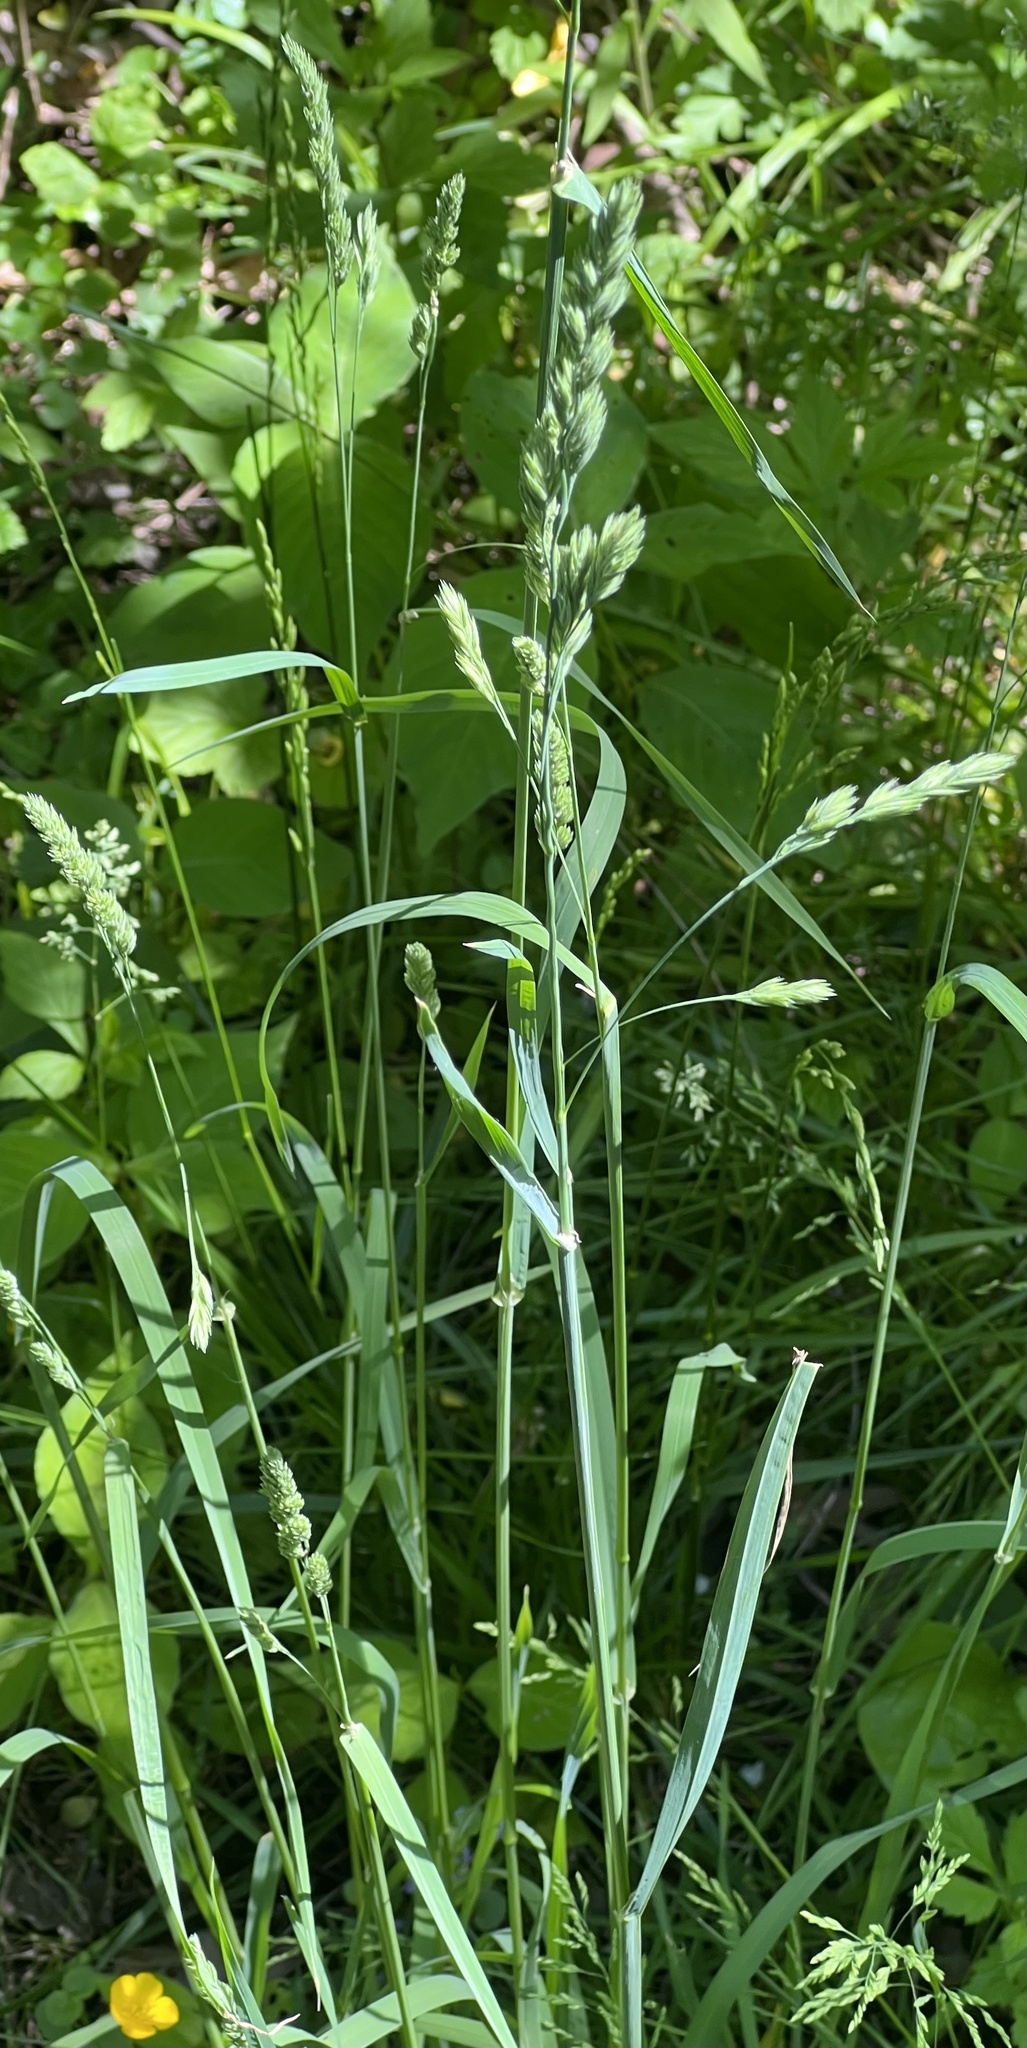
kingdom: Plantae
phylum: Tracheophyta
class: Liliopsida
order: Poales
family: Poaceae
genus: Dactylis
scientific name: Dactylis glomerata
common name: Orchardgrass
